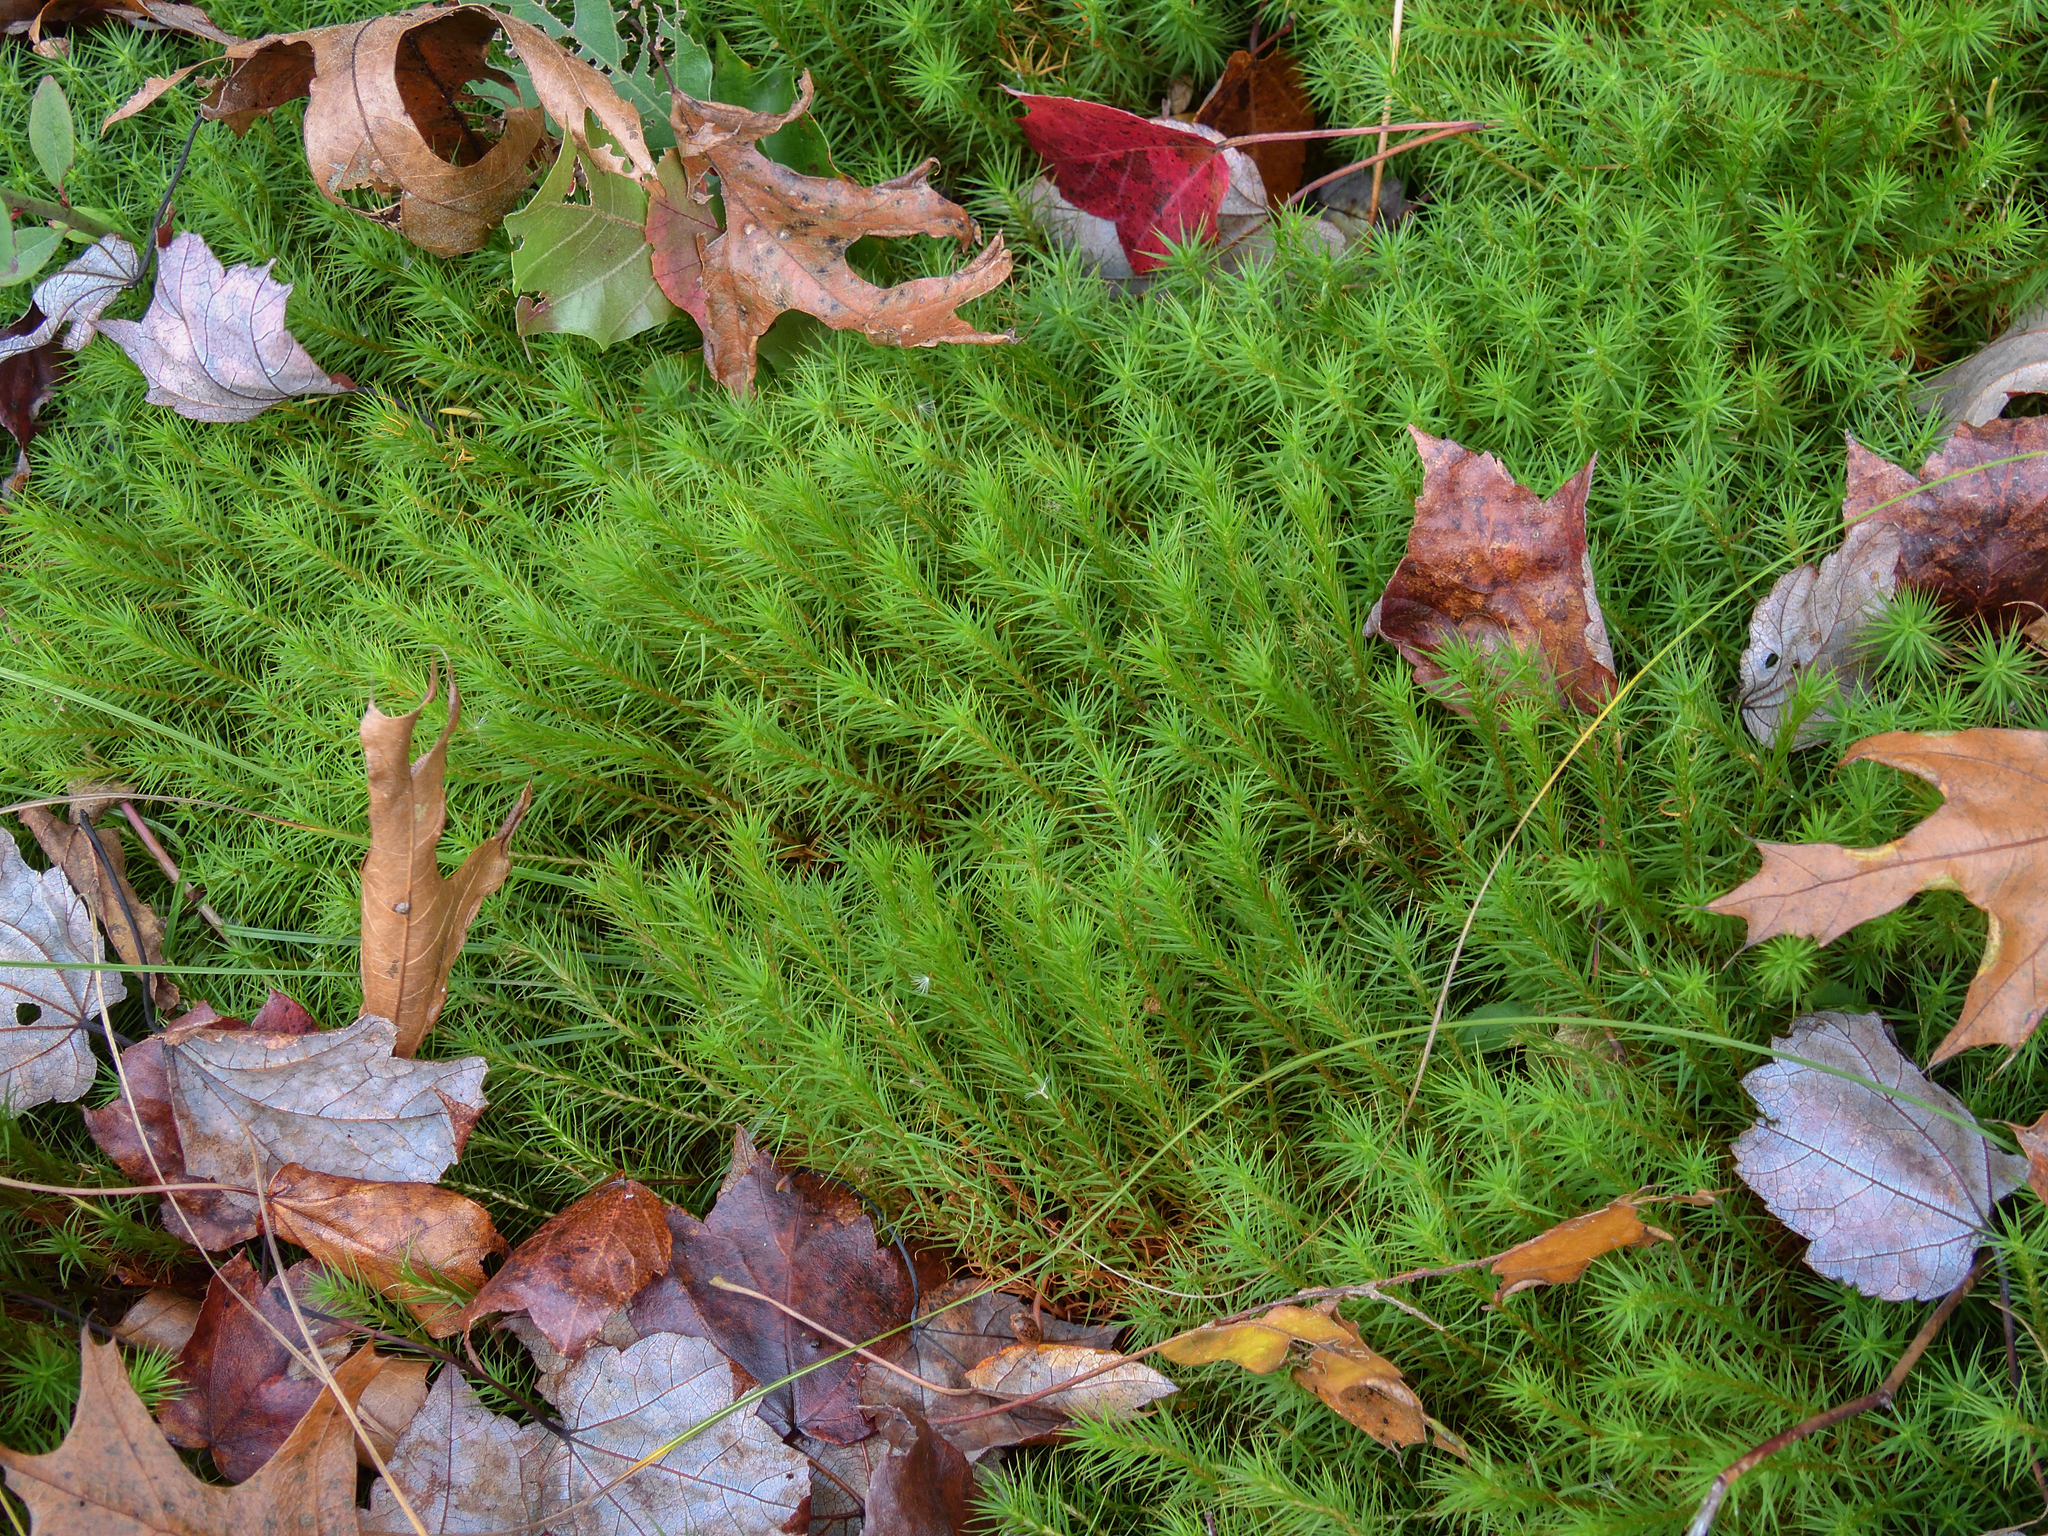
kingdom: Plantae
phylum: Bryophyta
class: Polytrichopsida
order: Polytrichales
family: Polytrichaceae
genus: Polytrichum
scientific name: Polytrichum commune
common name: Common haircap
